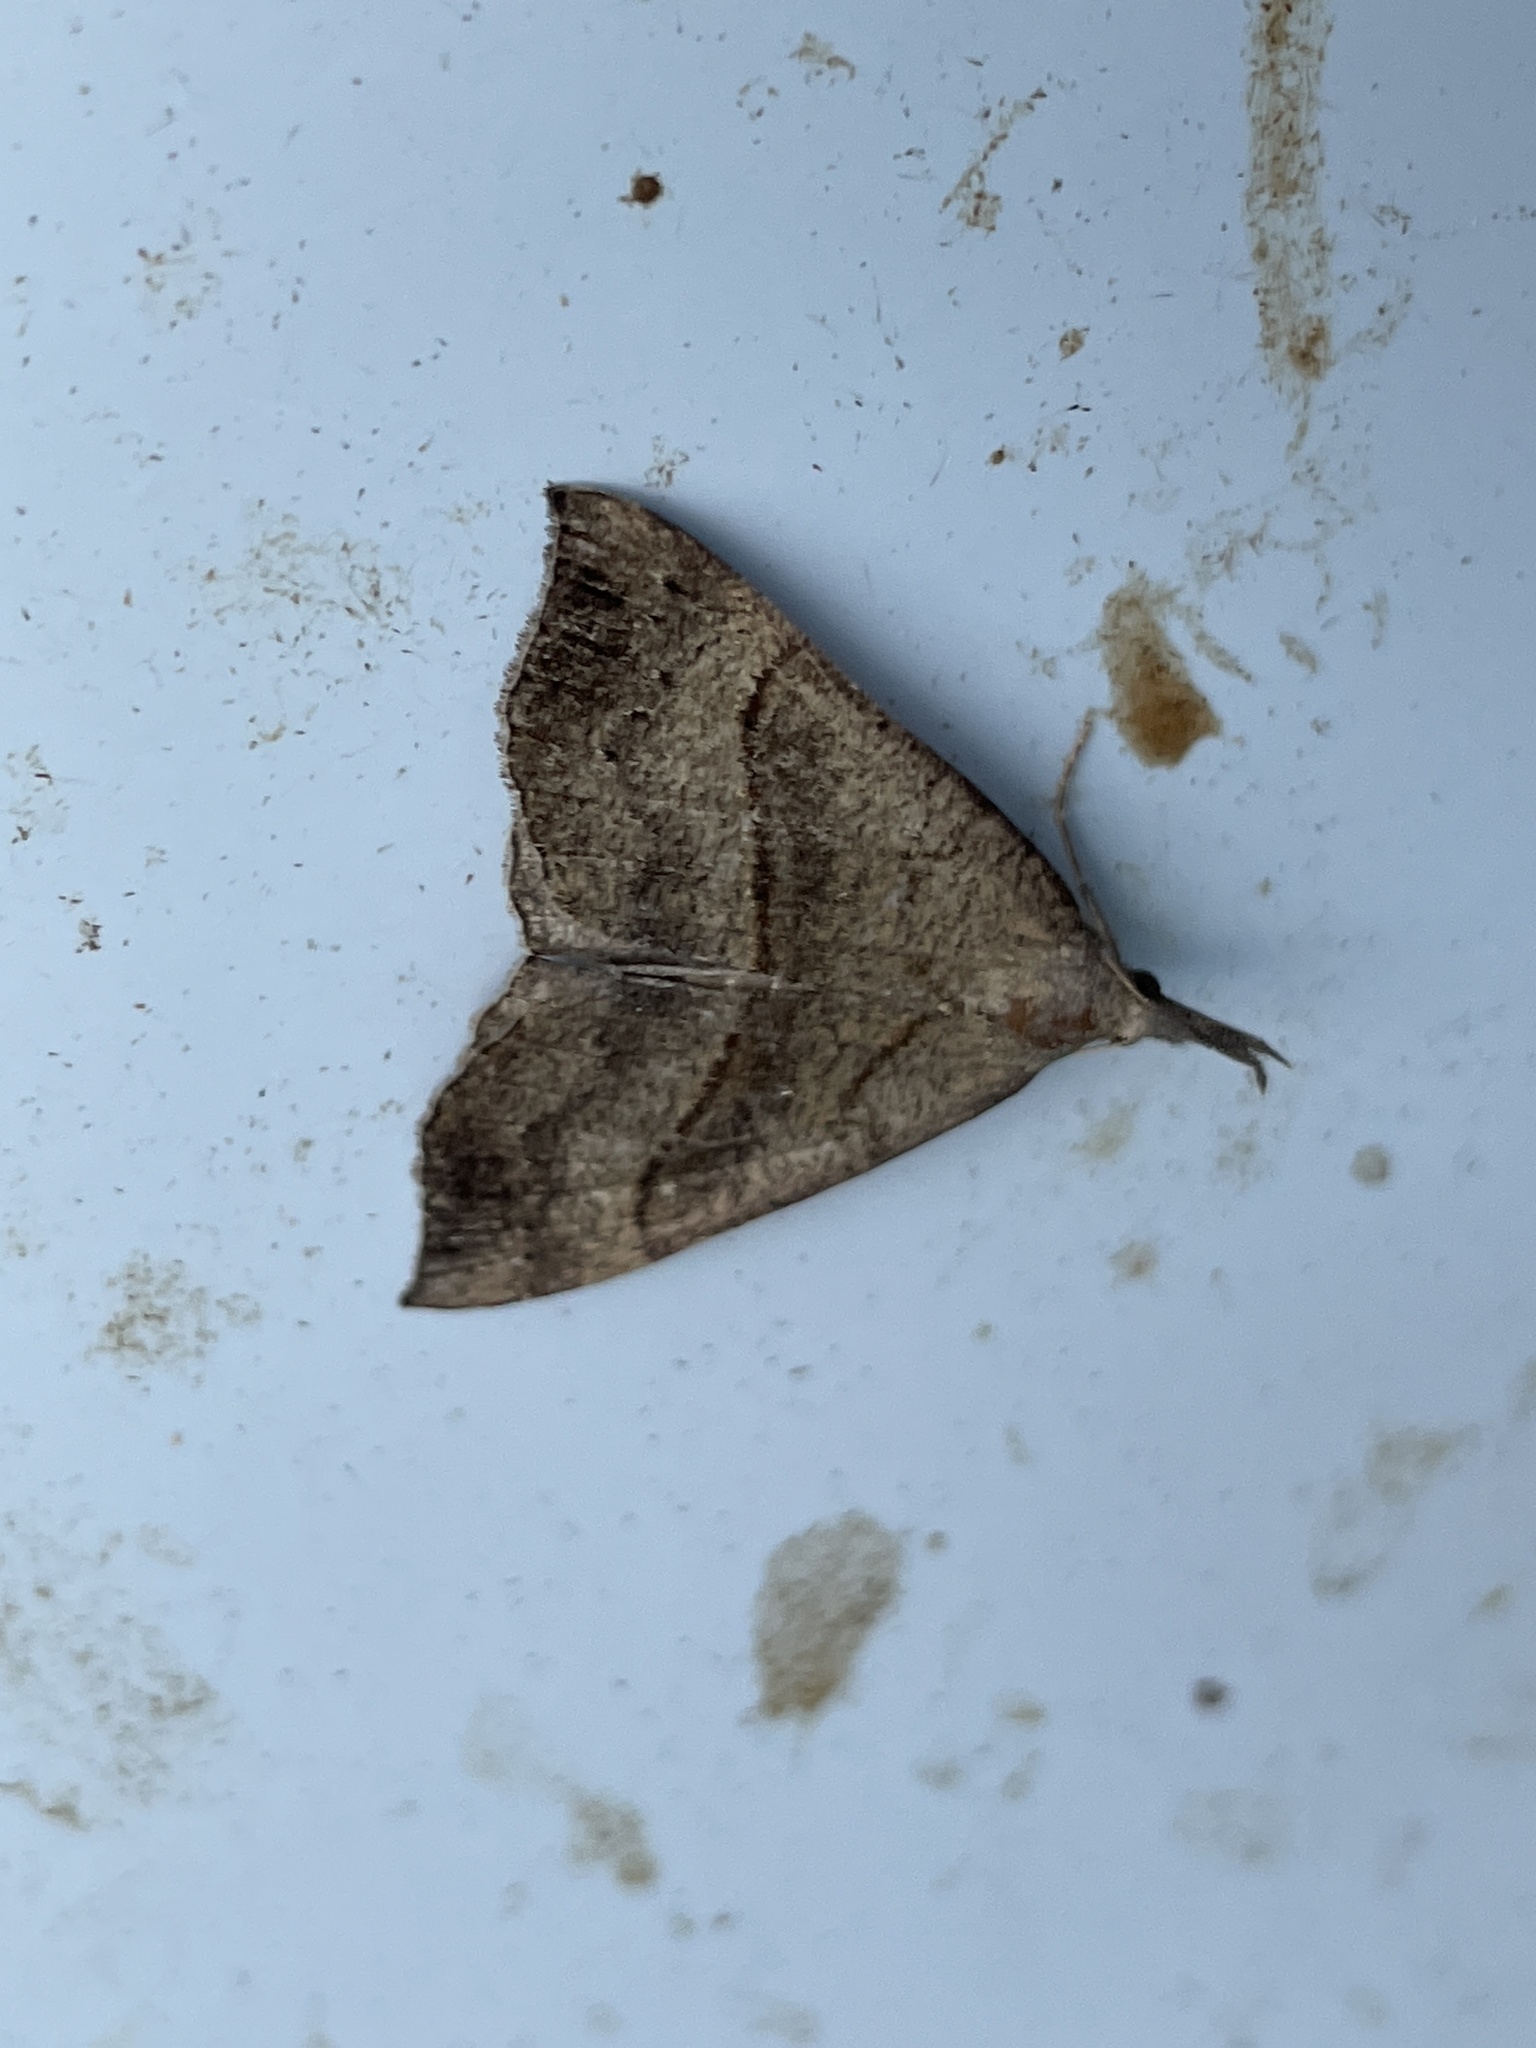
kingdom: Animalia
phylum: Arthropoda
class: Insecta
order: Lepidoptera
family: Erebidae
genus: Hypena
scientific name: Hypena proboscidalis
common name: Snout
